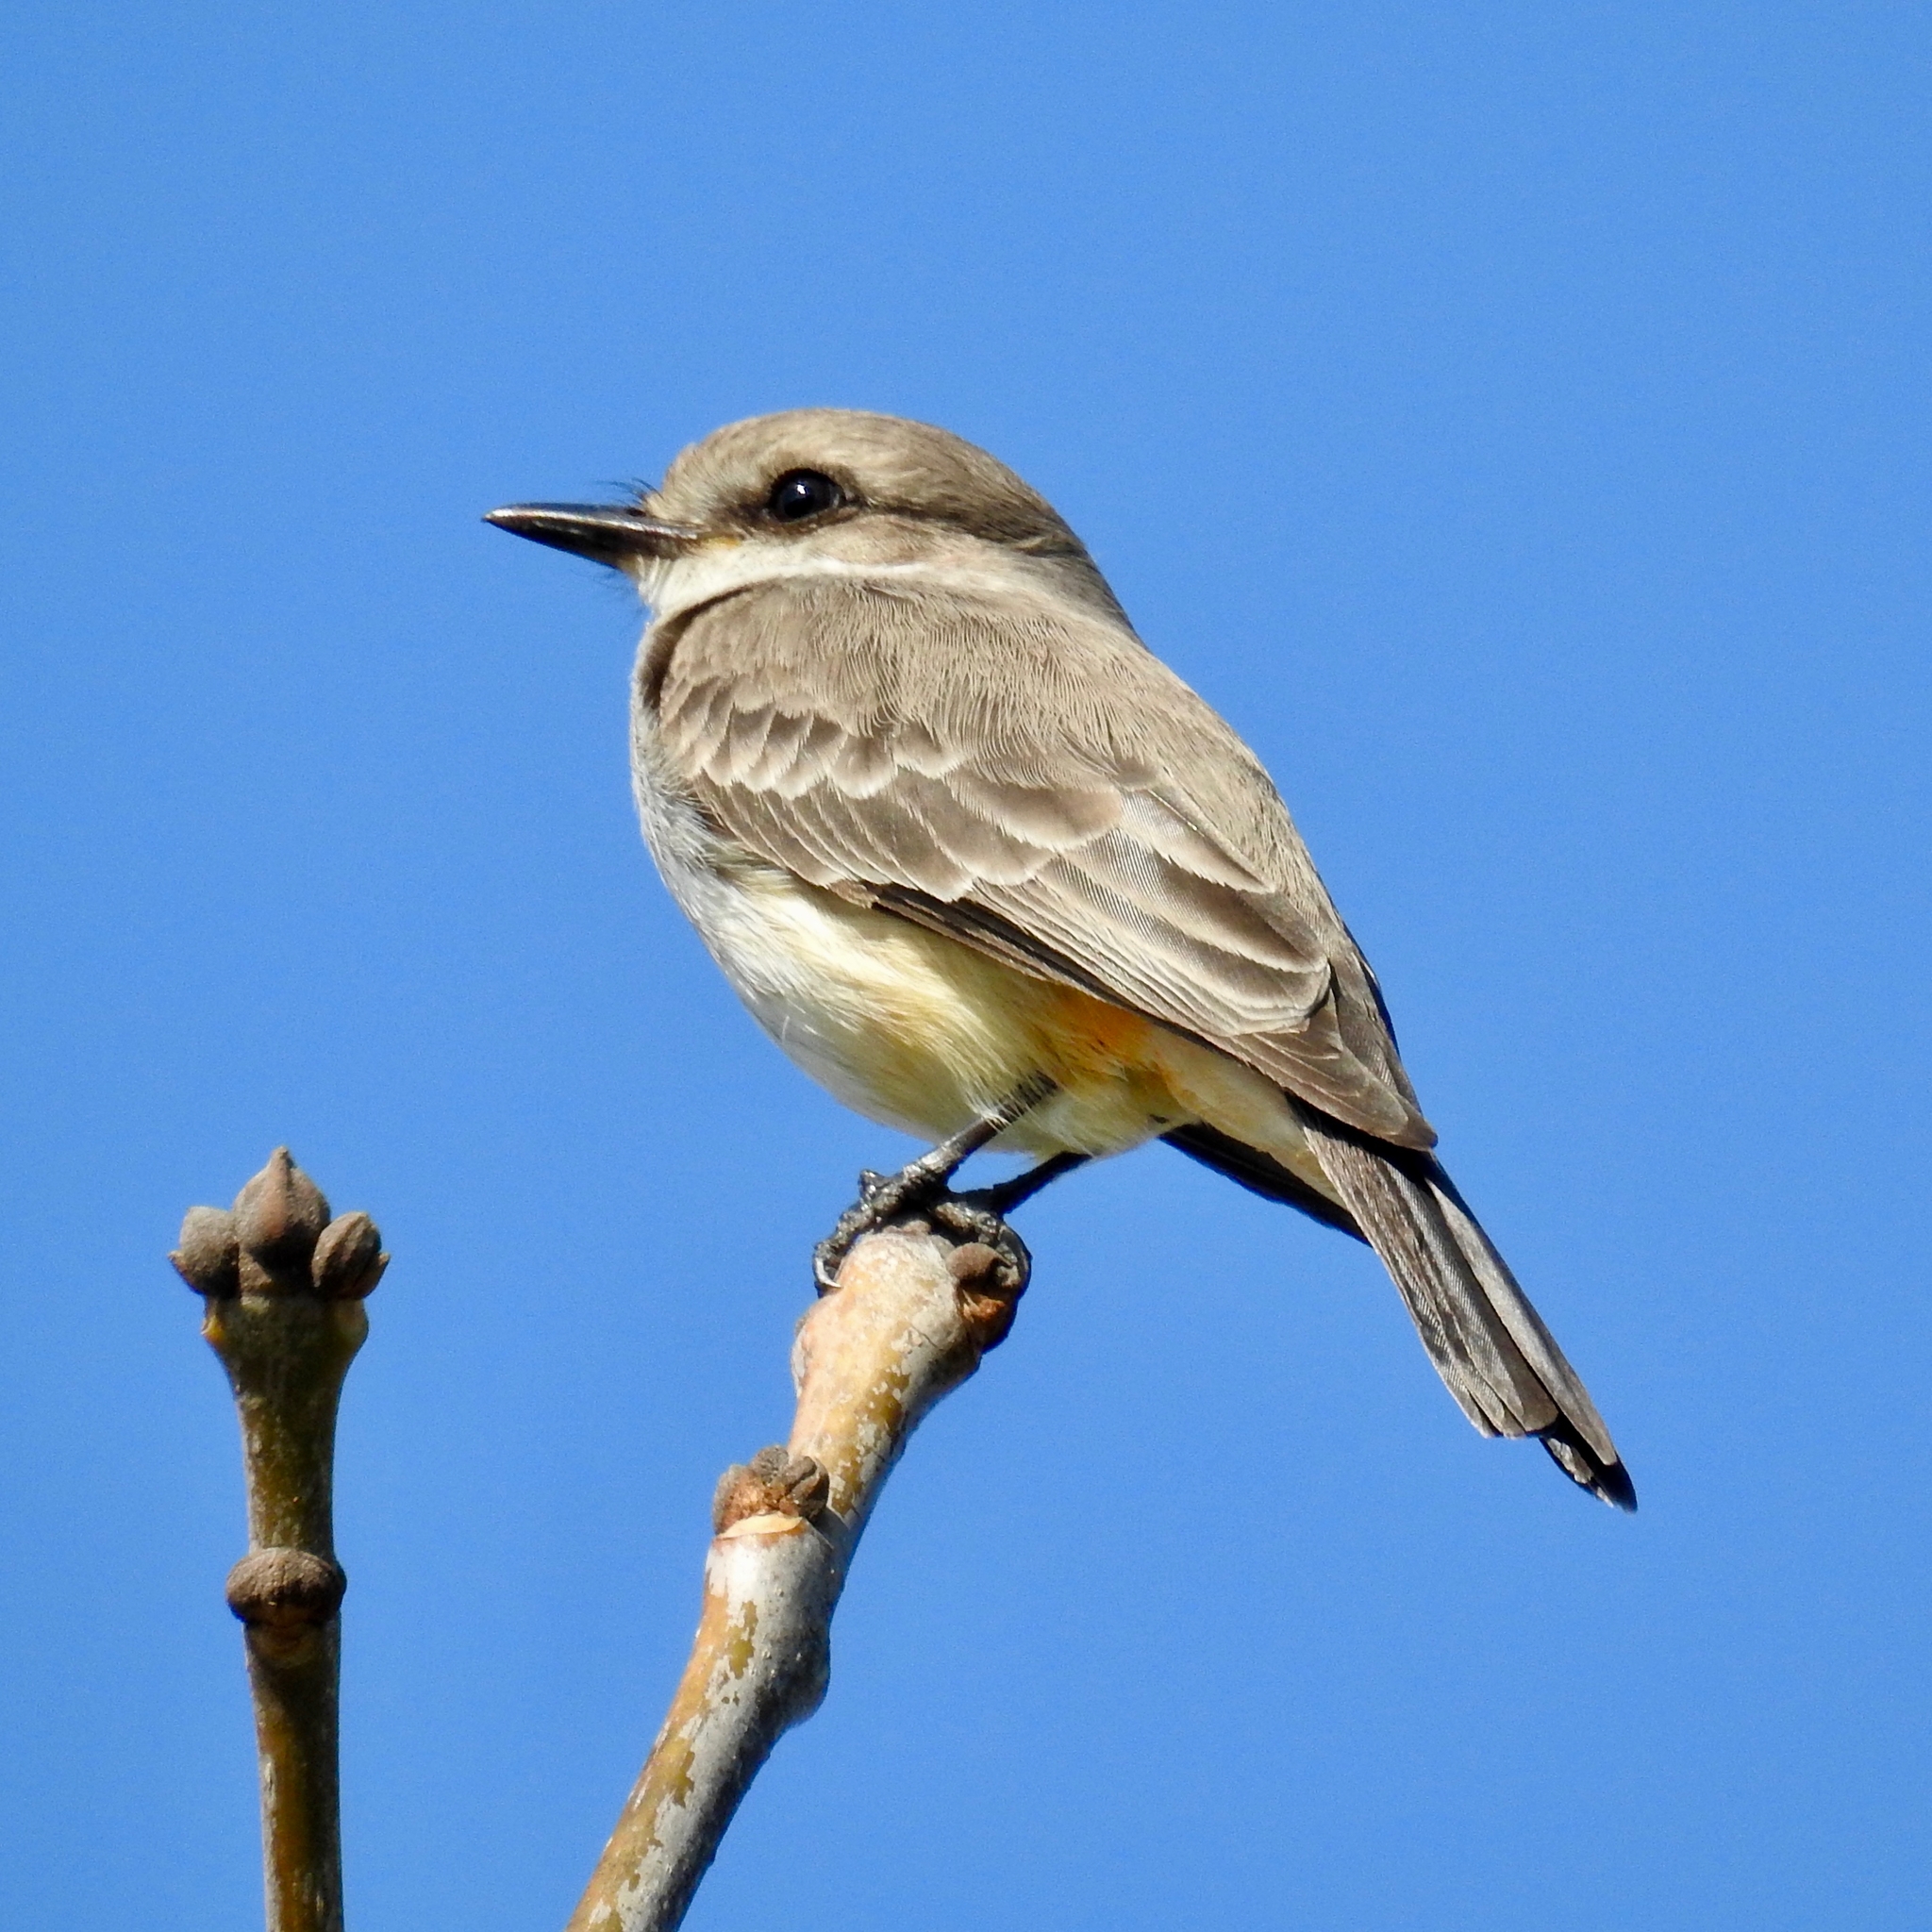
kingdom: Animalia
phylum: Chordata
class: Aves
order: Passeriformes
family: Tyrannidae
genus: Pyrocephalus
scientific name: Pyrocephalus rubinus
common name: Vermilion flycatcher
